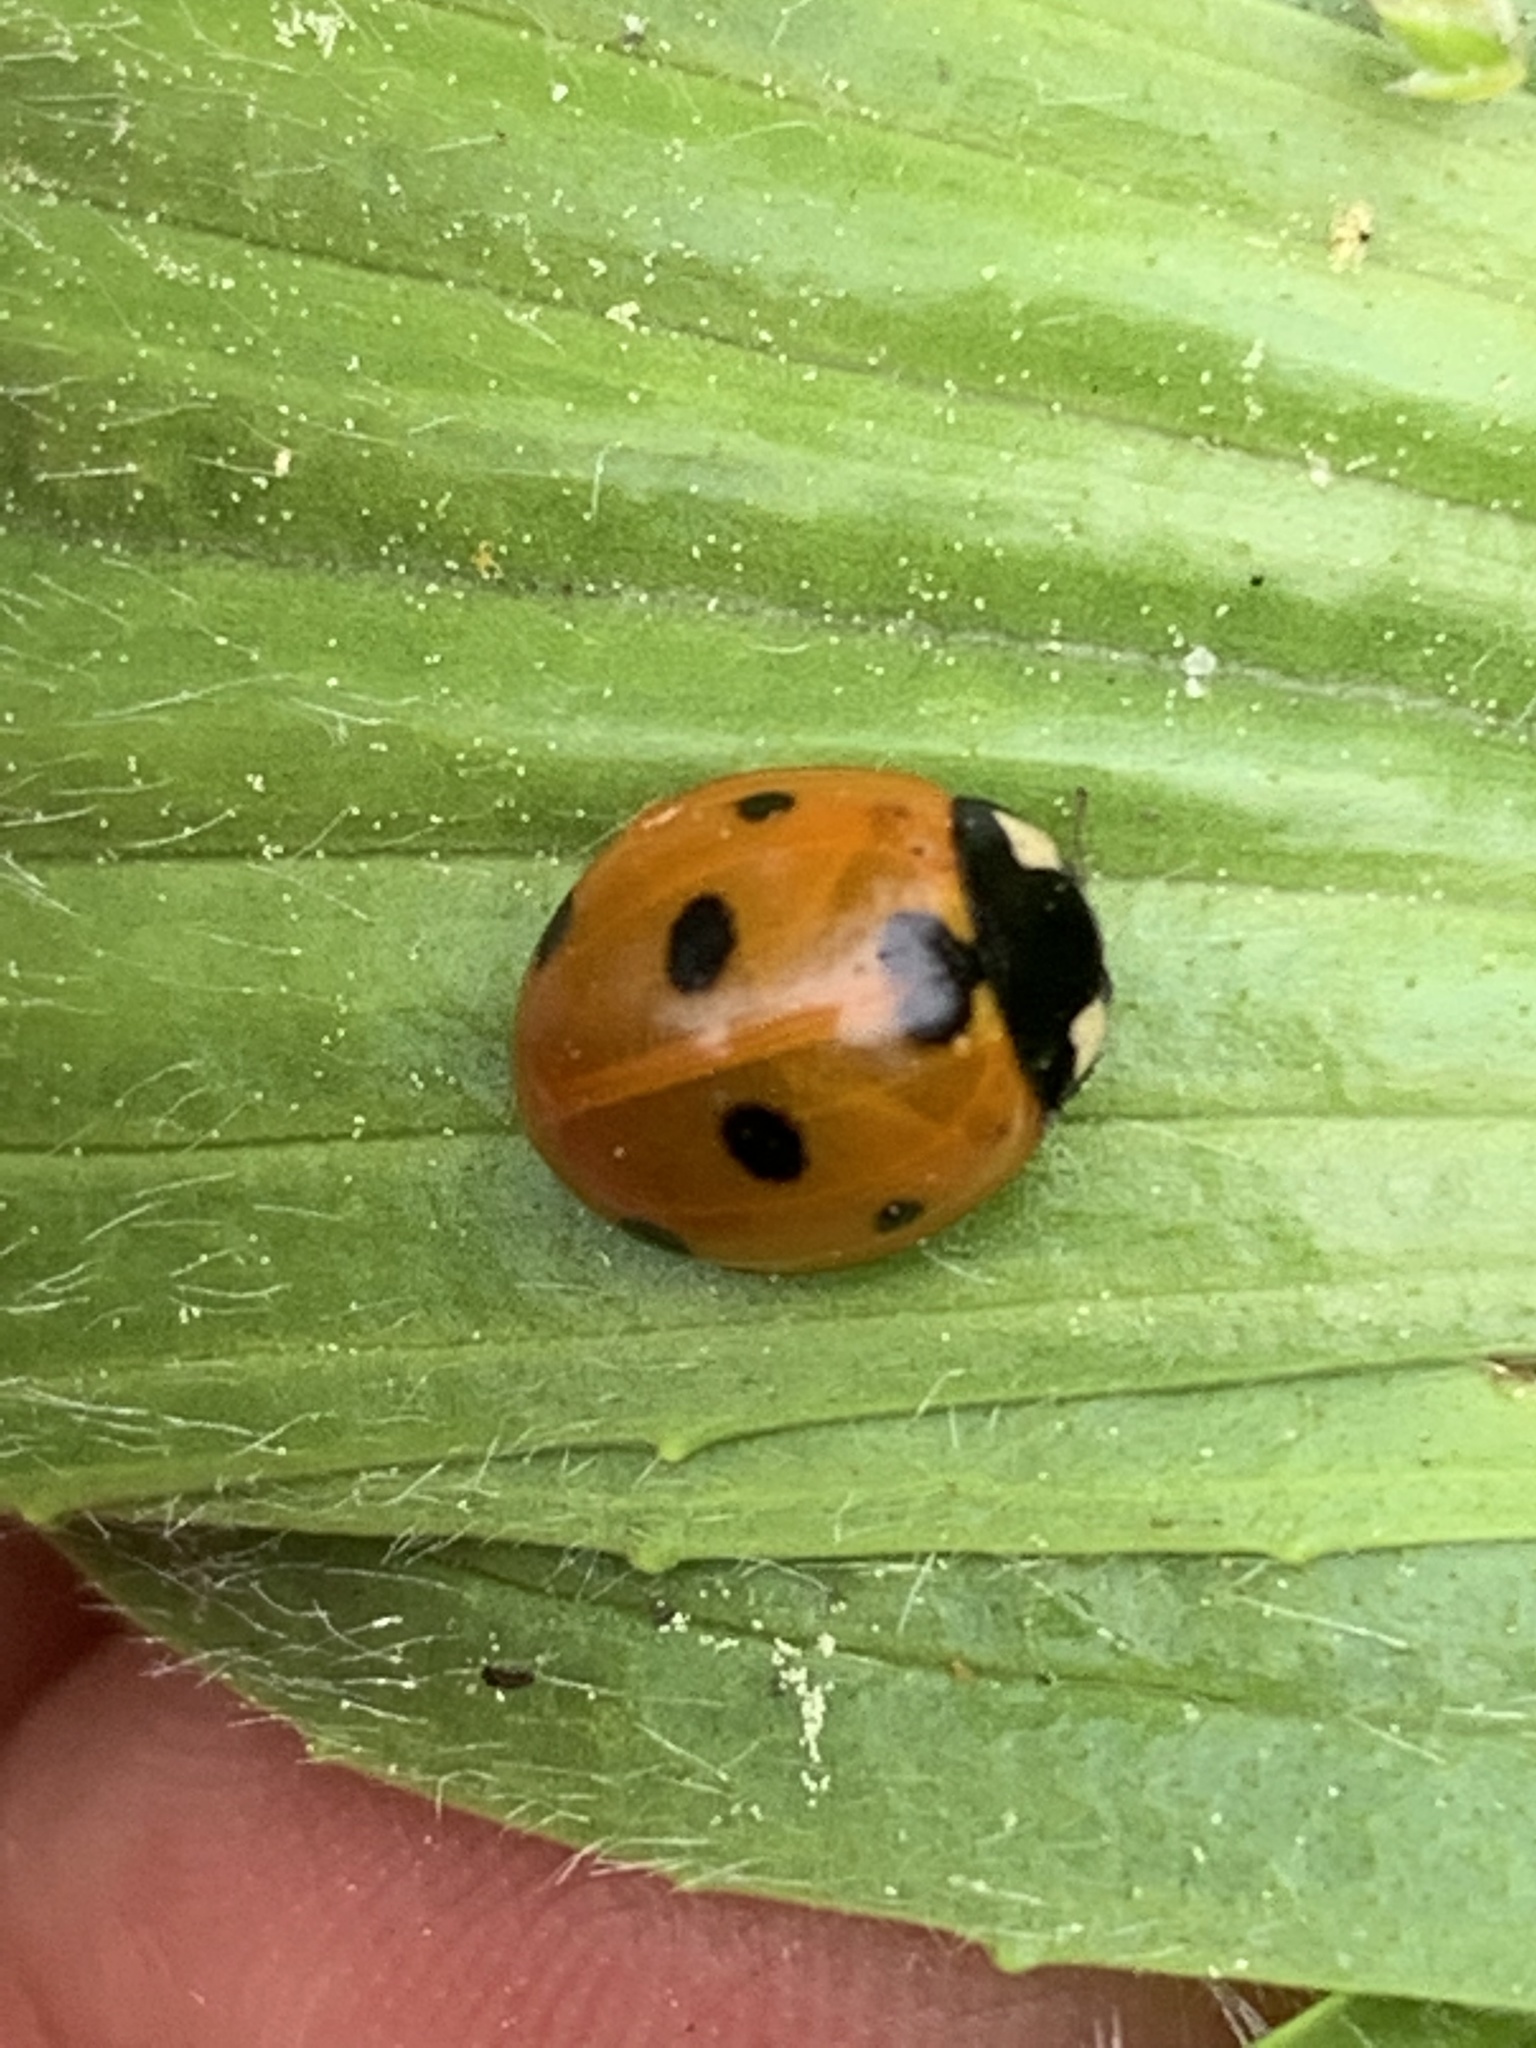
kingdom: Animalia
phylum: Arthropoda
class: Insecta
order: Coleoptera
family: Coccinellidae
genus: Coccinella
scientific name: Coccinella septempunctata
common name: Sevenspotted lady beetle
